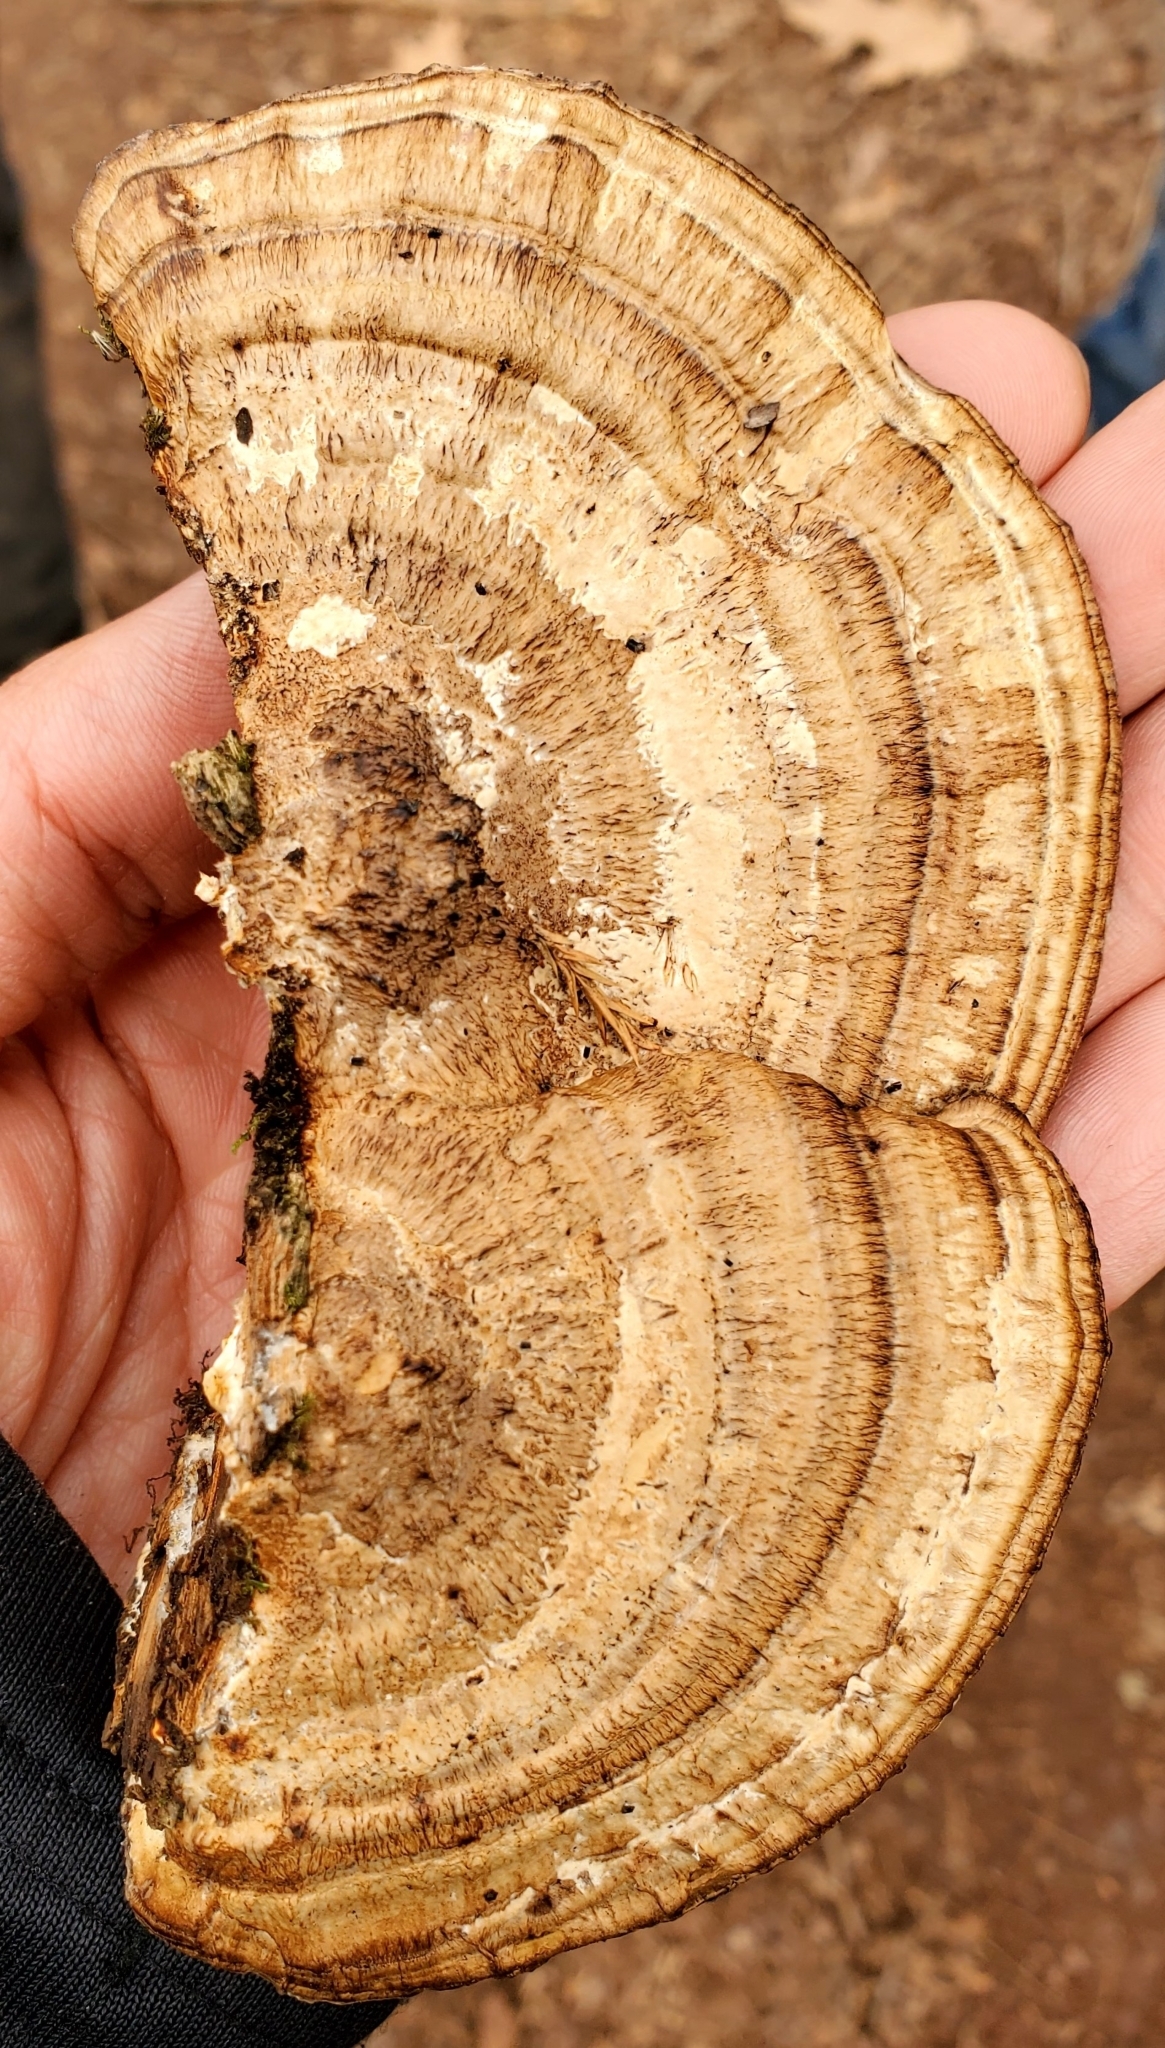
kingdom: Fungi
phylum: Basidiomycota
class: Agaricomycetes
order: Polyporales
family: Polyporaceae
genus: Daedaleopsis
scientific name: Daedaleopsis confragosa
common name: Blushing bracket
